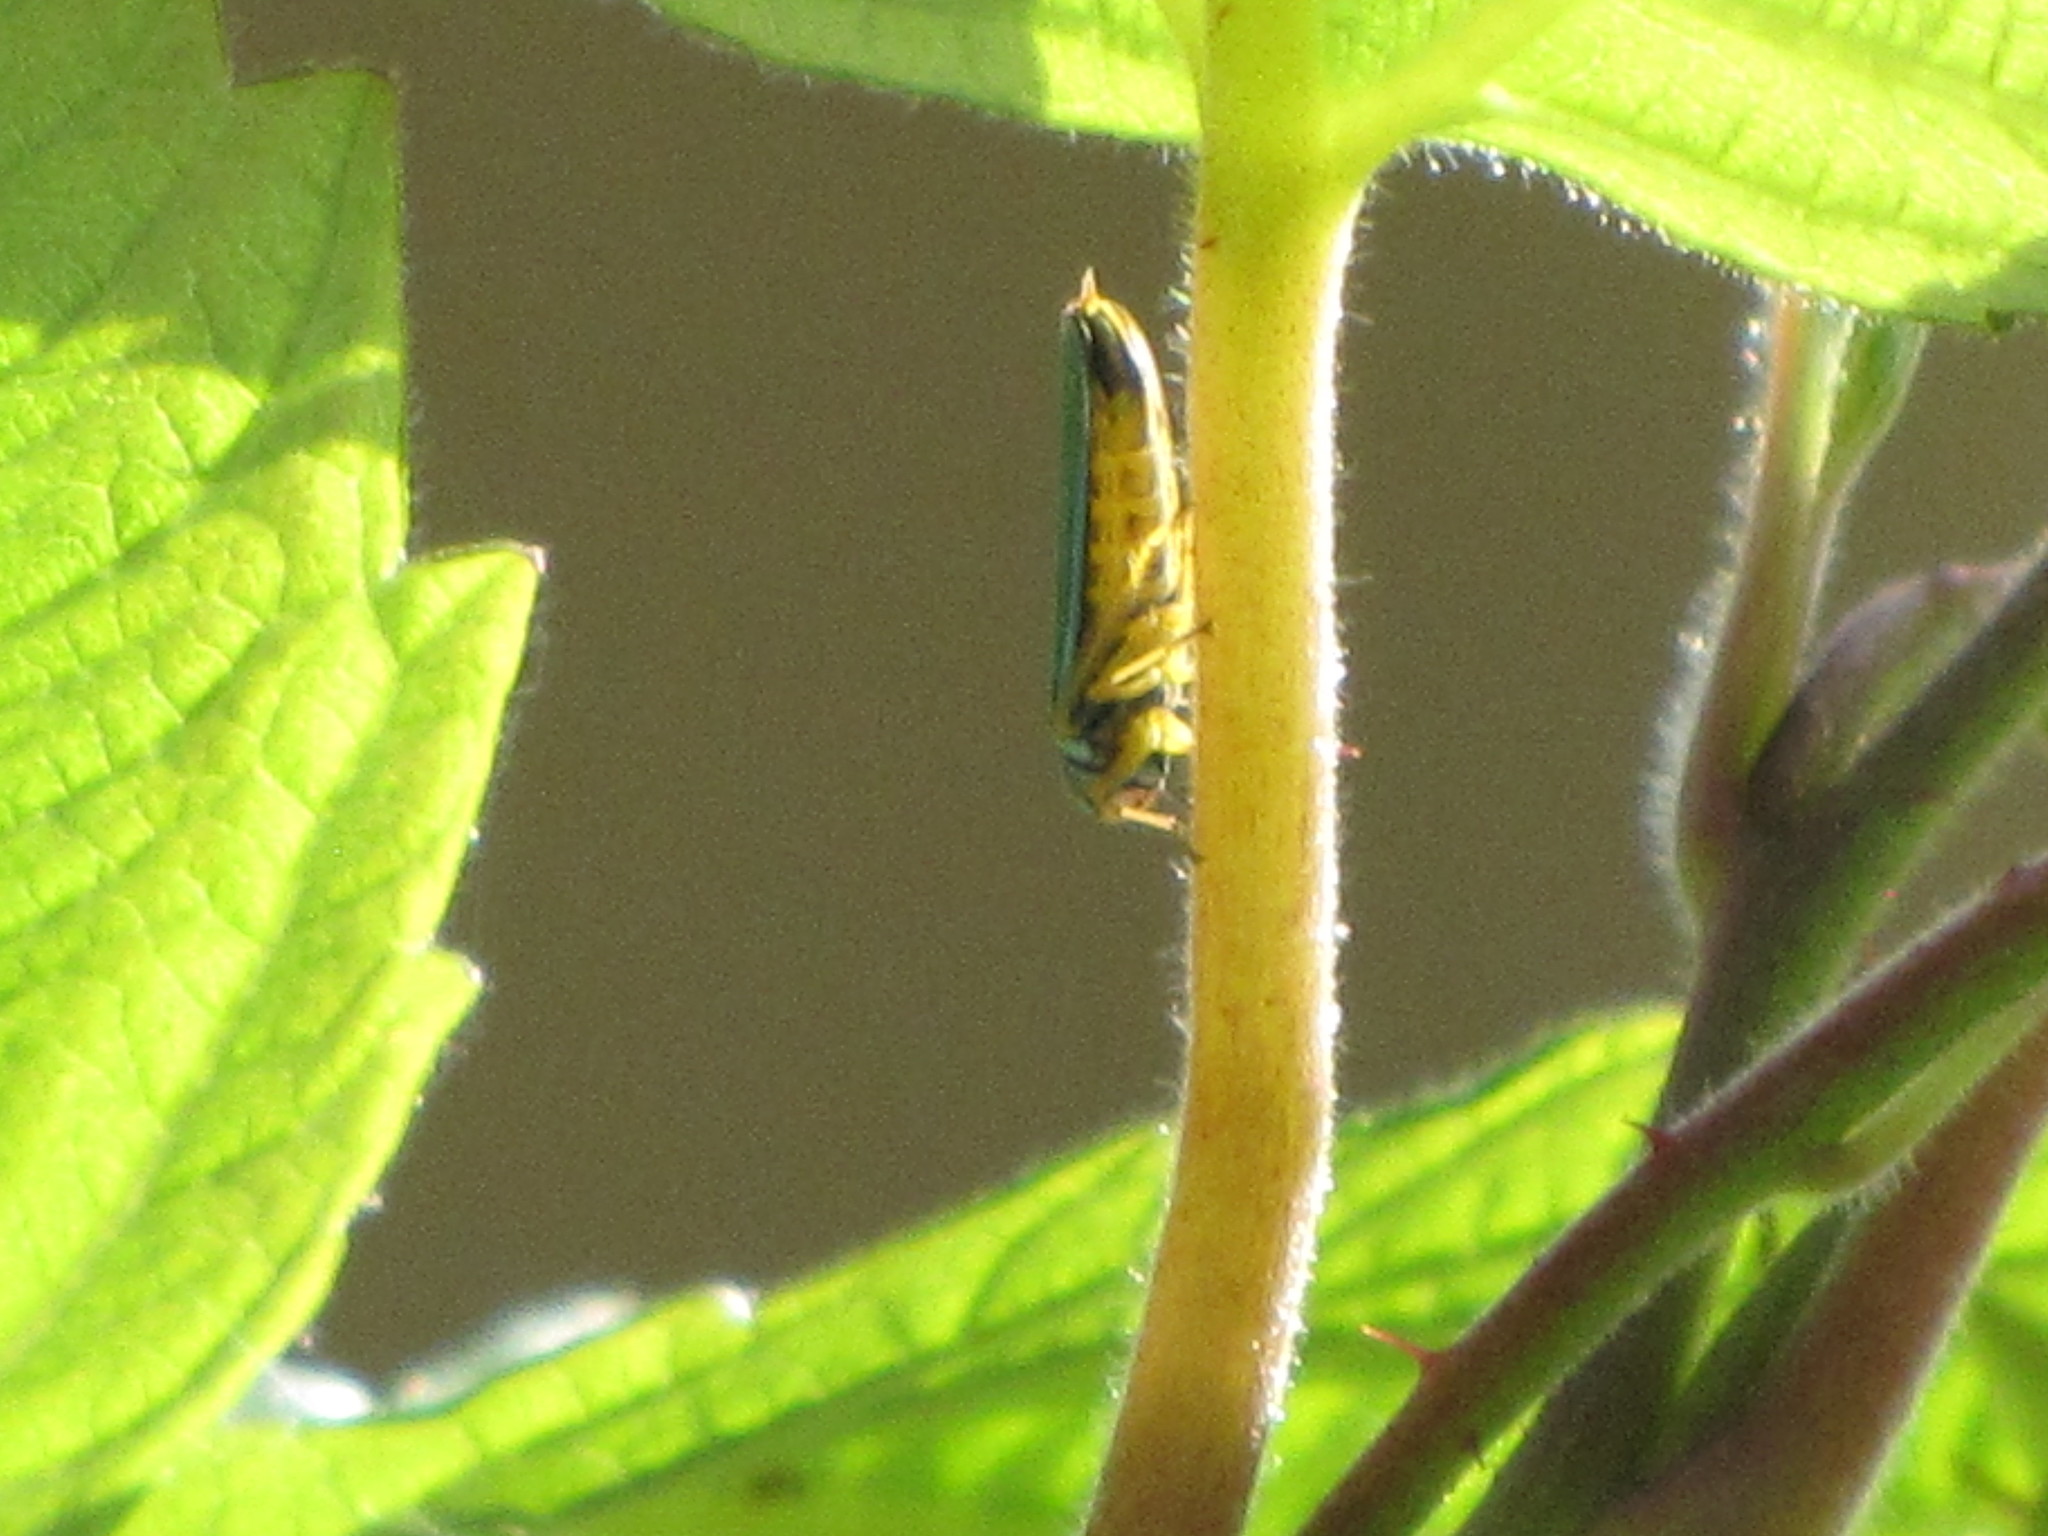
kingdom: Animalia
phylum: Arthropoda
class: Insecta
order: Hemiptera
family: Cicadellidae
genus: Graphocephala
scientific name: Graphocephala atropunctata
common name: Blue-green sharpshooter
